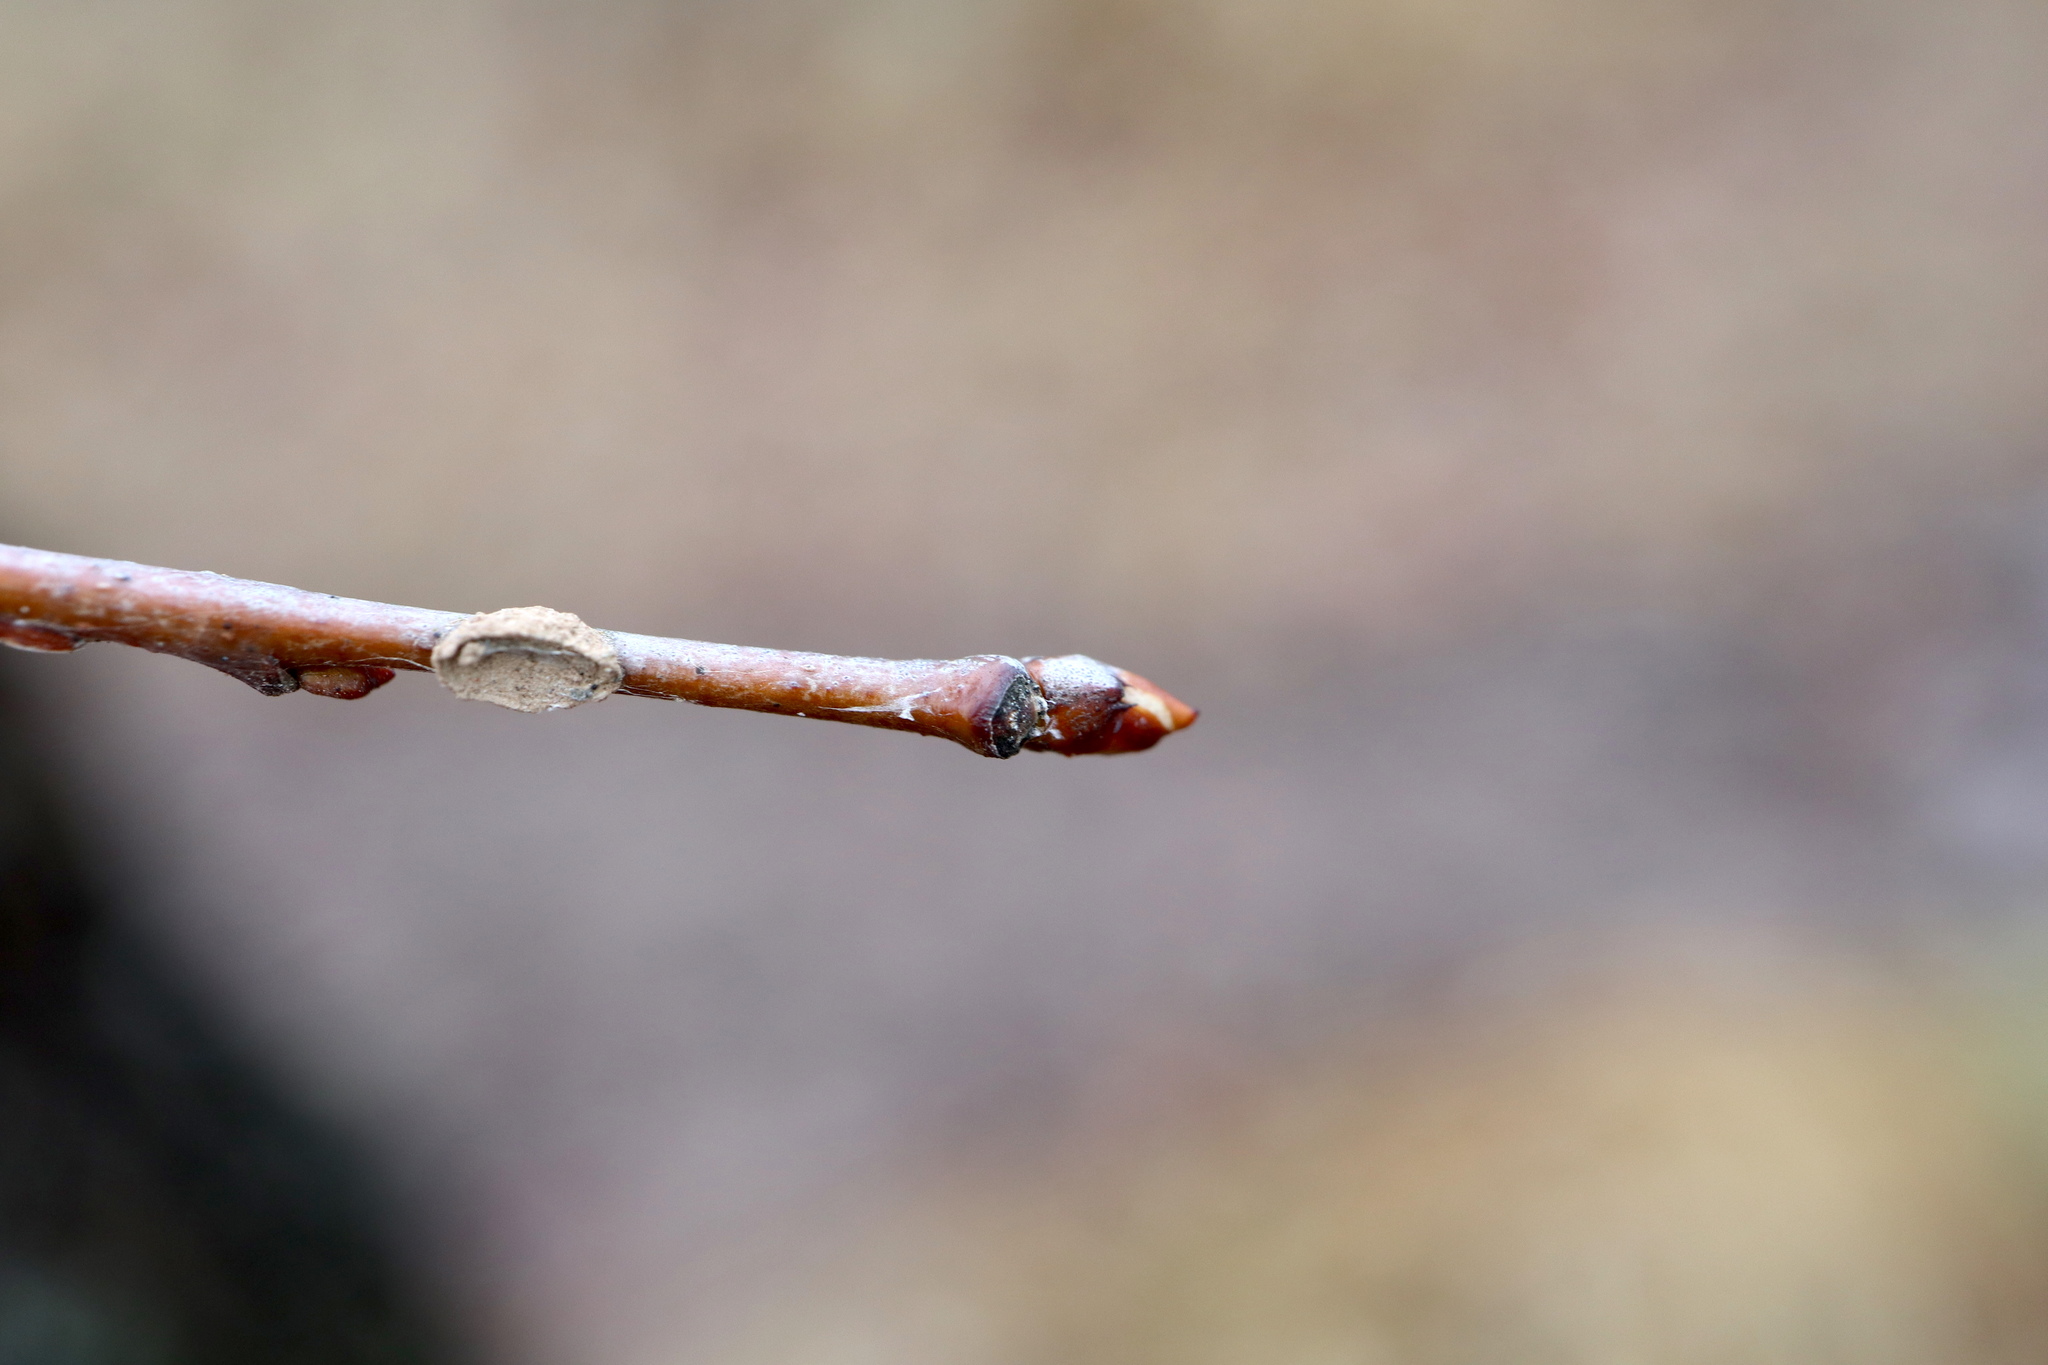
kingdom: Plantae
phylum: Tracheophyta
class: Magnoliopsida
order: Rosales
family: Rosaceae
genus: Prunus
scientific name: Prunus serotina
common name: Black cherry
